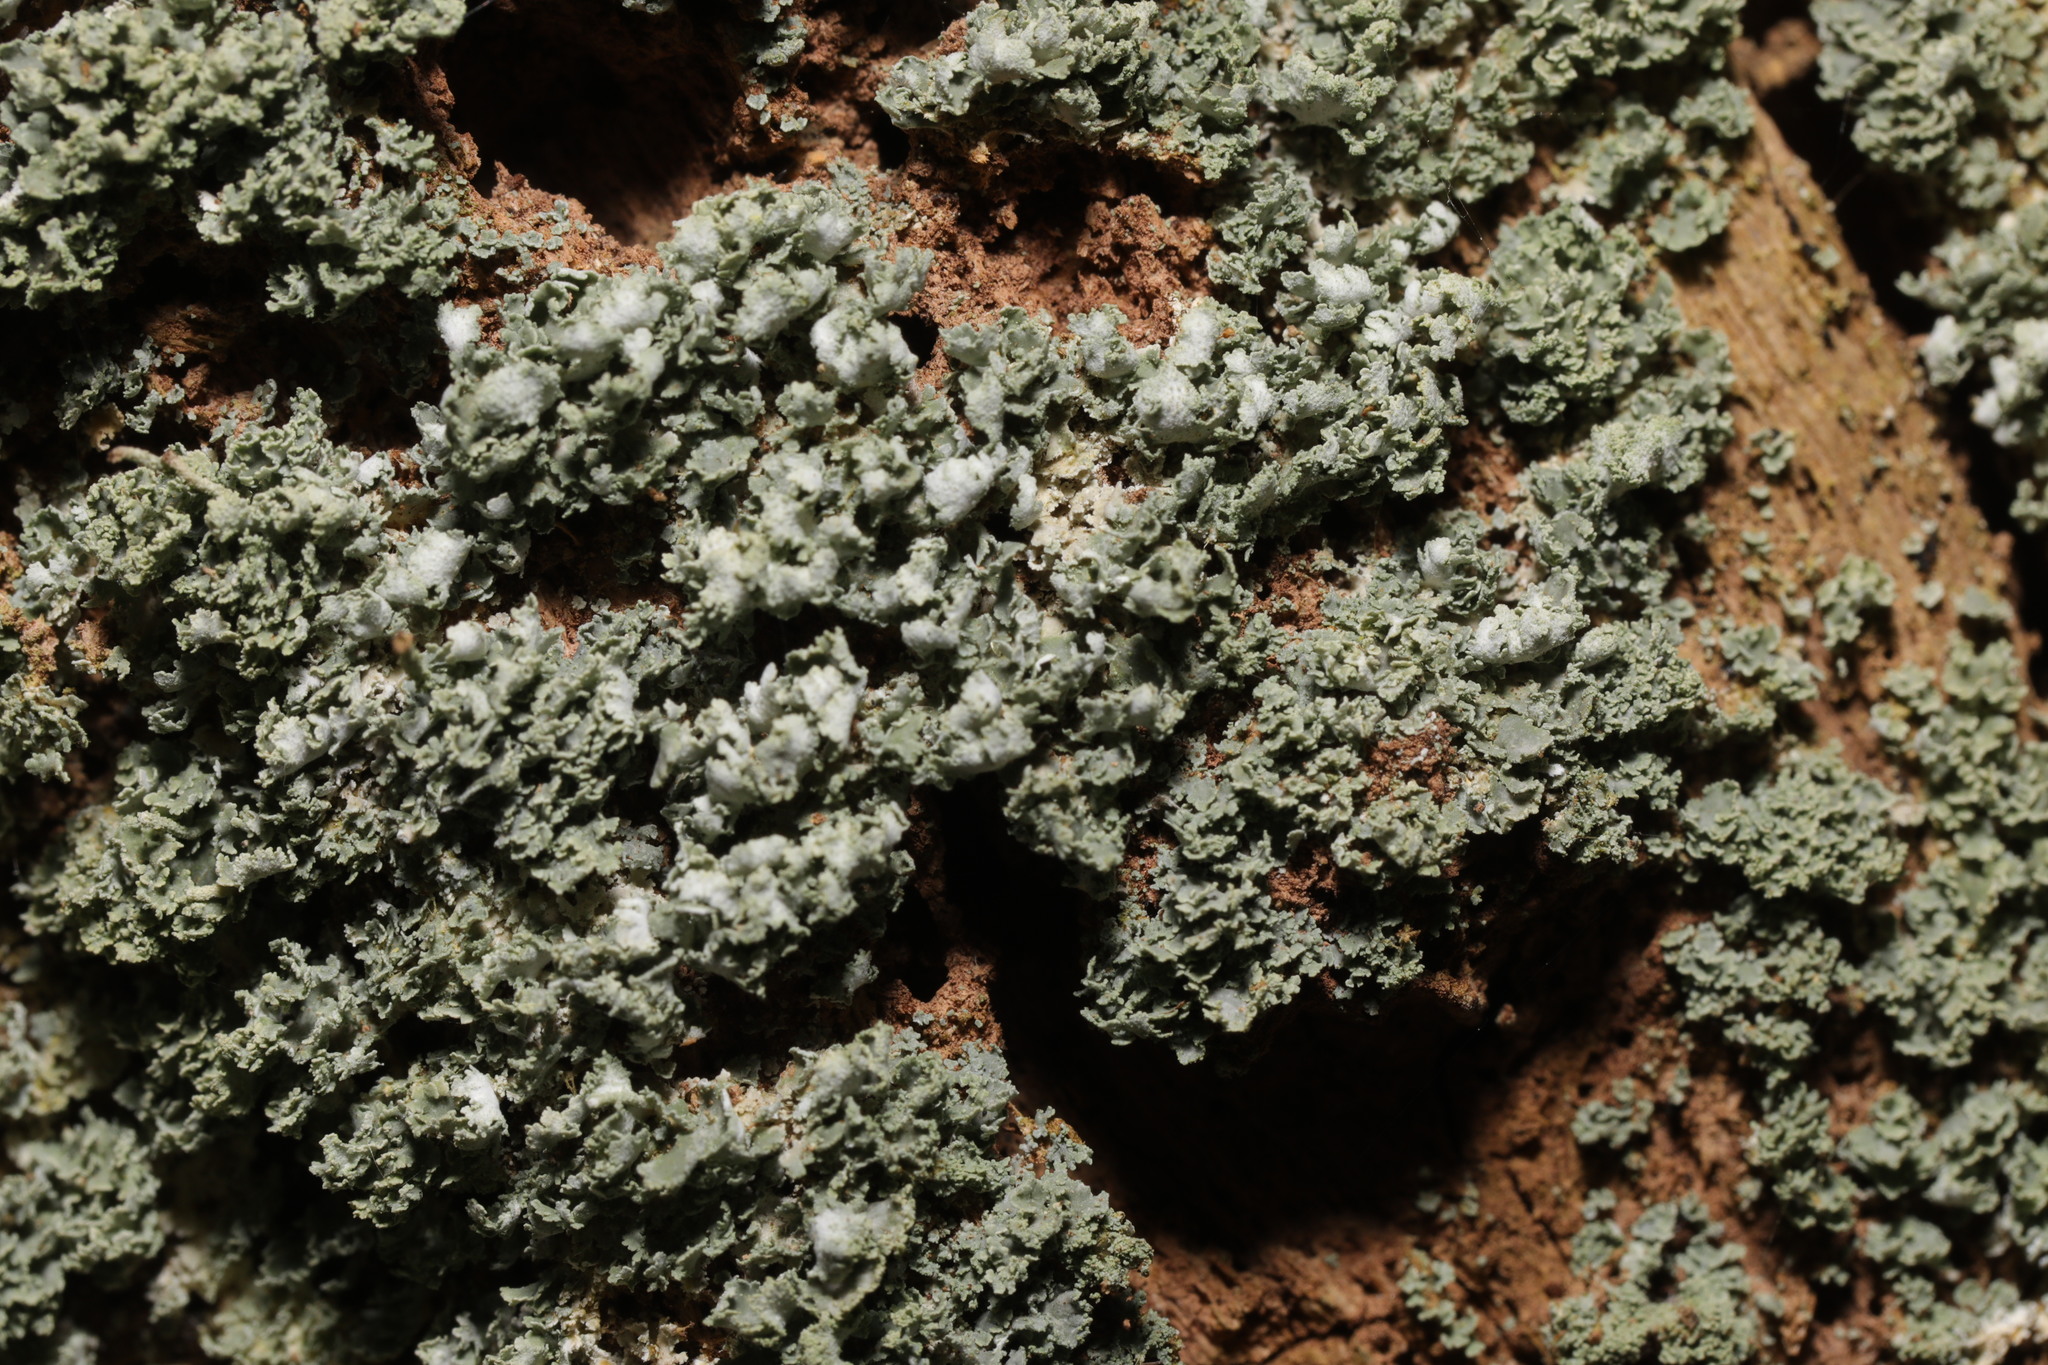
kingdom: Fungi
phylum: Ascomycota
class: Lecanoromycetes
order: Lecanorales
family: Cladoniaceae
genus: Cladonia
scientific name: Cladonia
